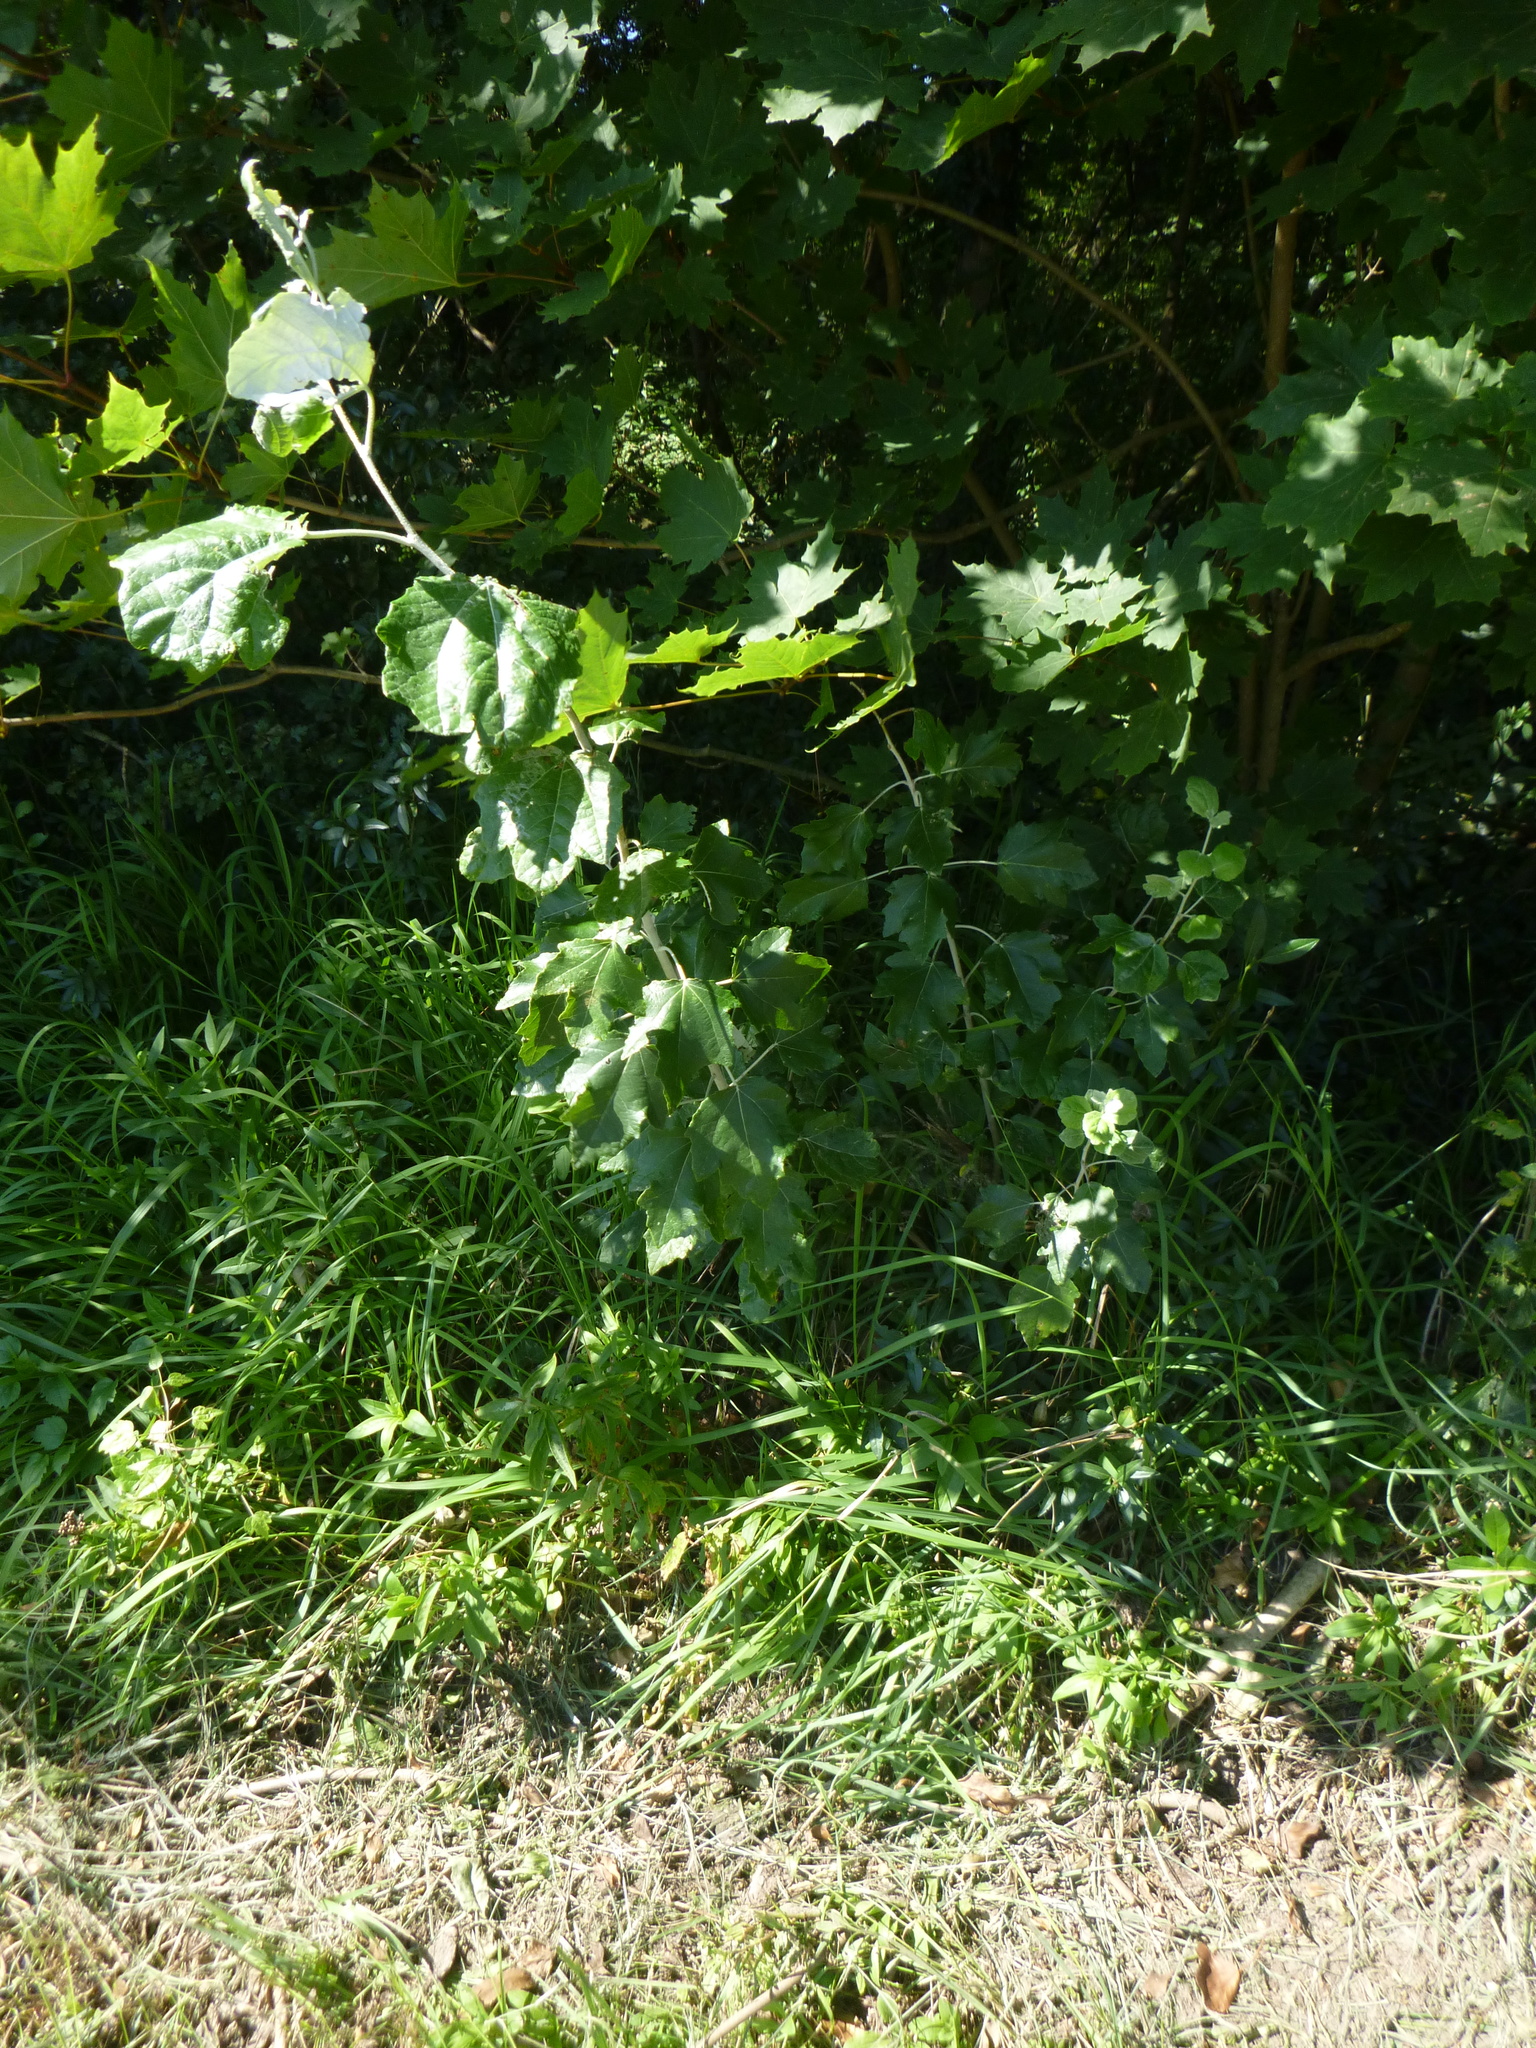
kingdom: Plantae
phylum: Tracheophyta
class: Magnoliopsida
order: Malpighiales
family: Salicaceae
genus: Populus
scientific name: Populus alba
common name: White poplar
